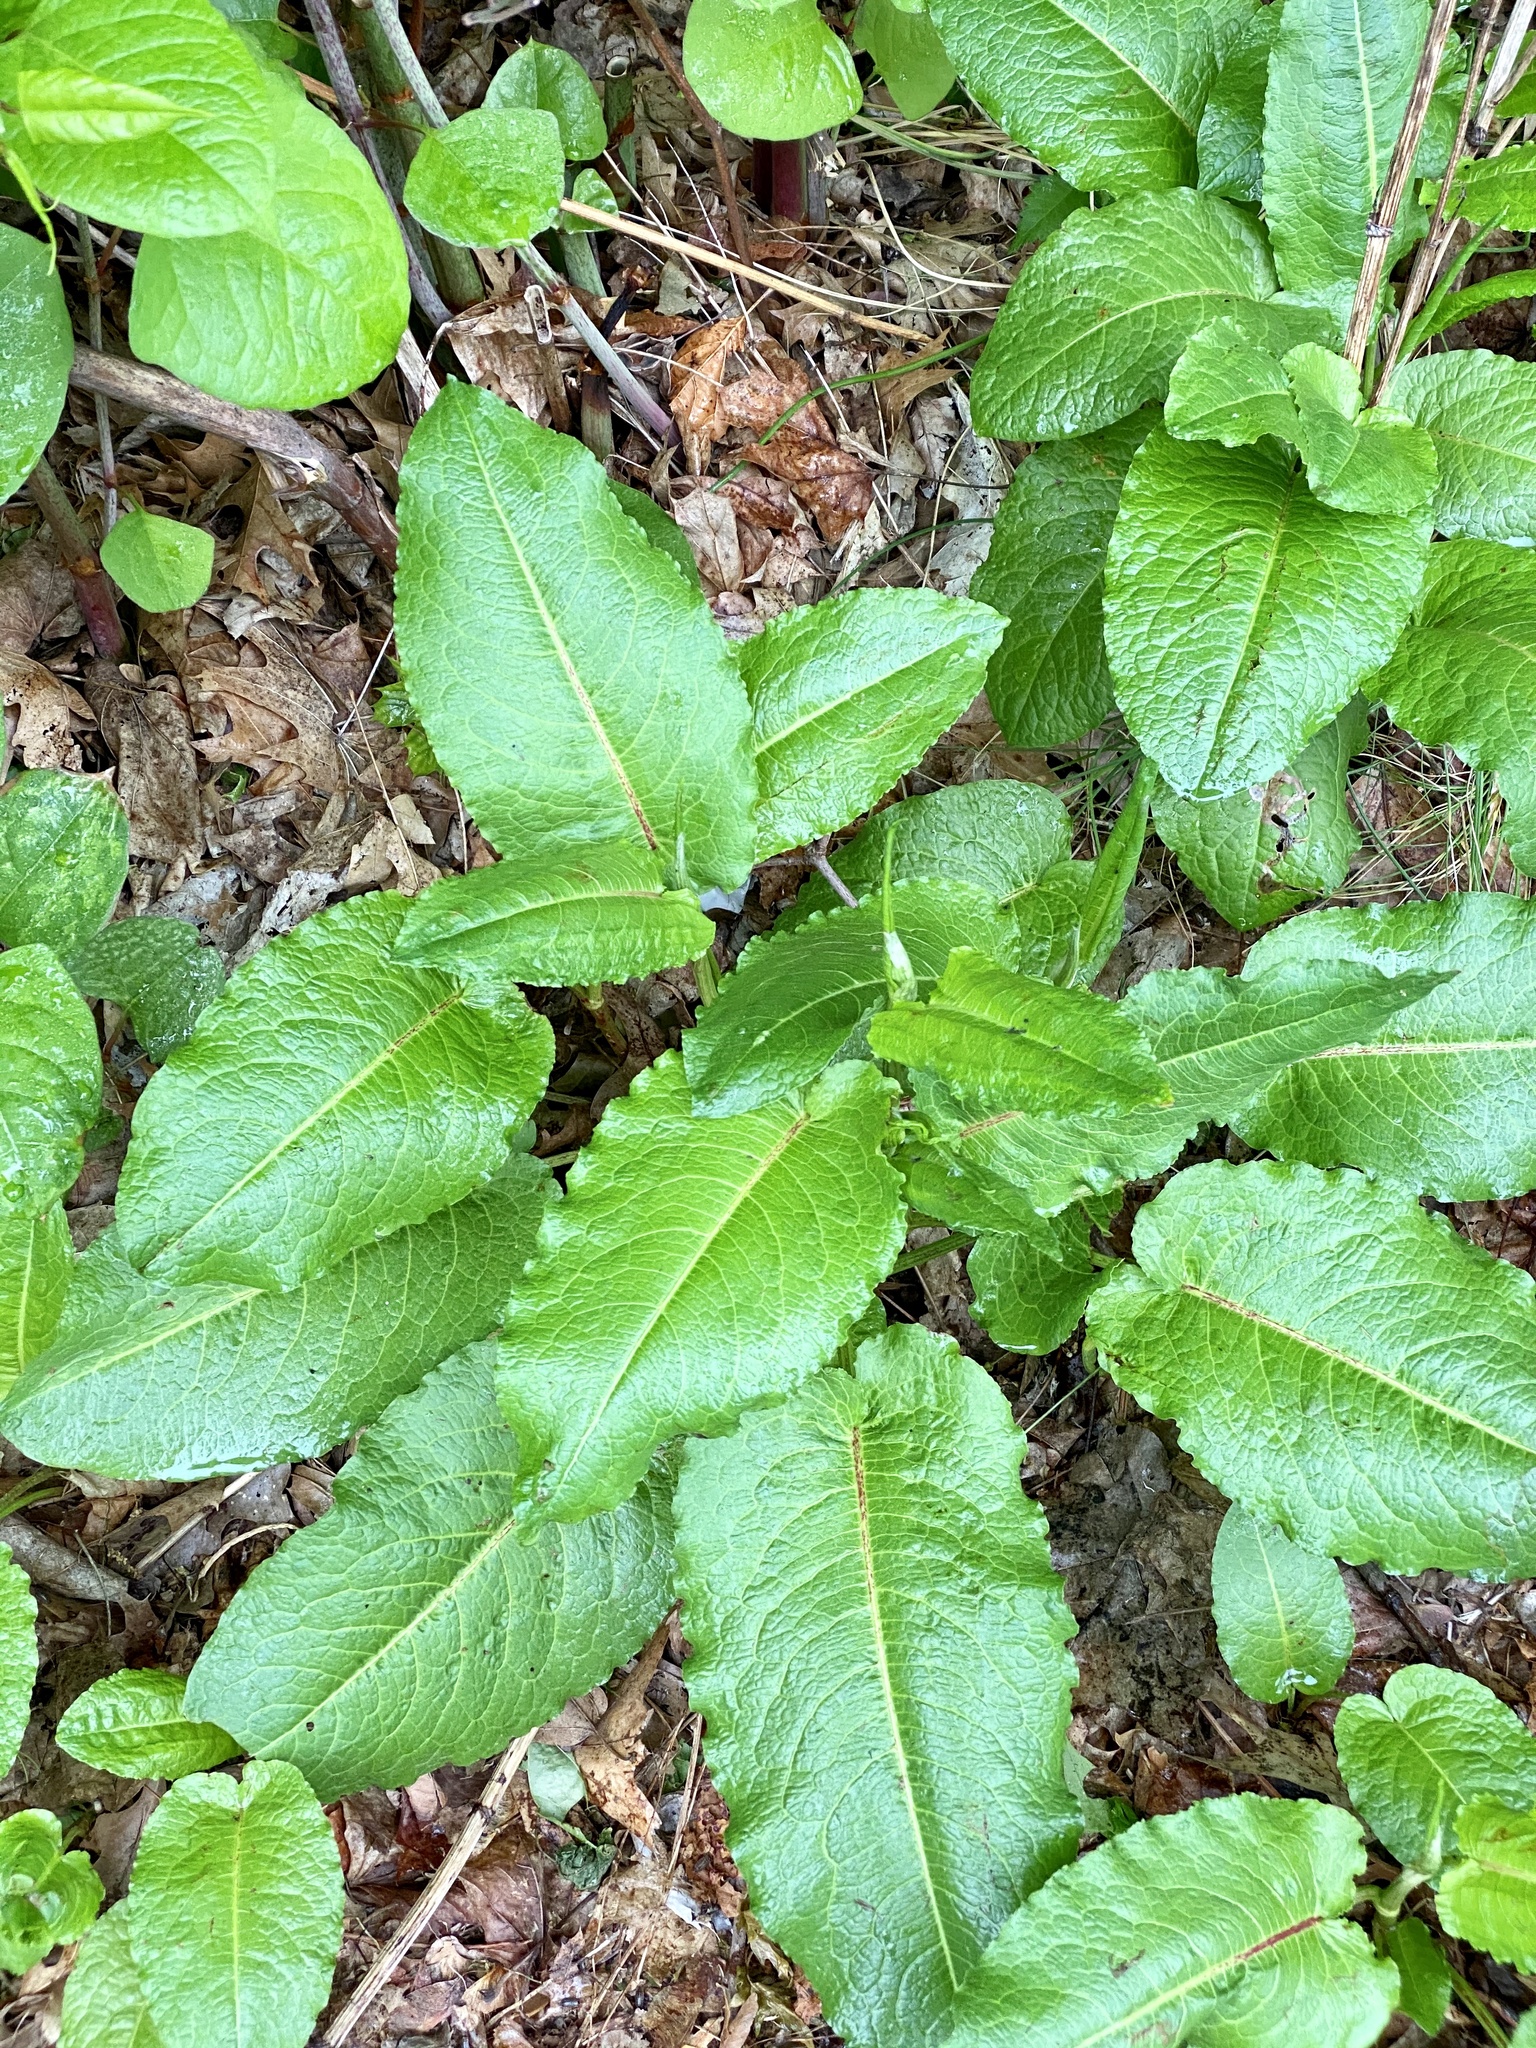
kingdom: Plantae
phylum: Tracheophyta
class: Magnoliopsida
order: Caryophyllales
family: Polygonaceae
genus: Rumex
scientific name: Rumex obtusifolius
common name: Bitter dock
